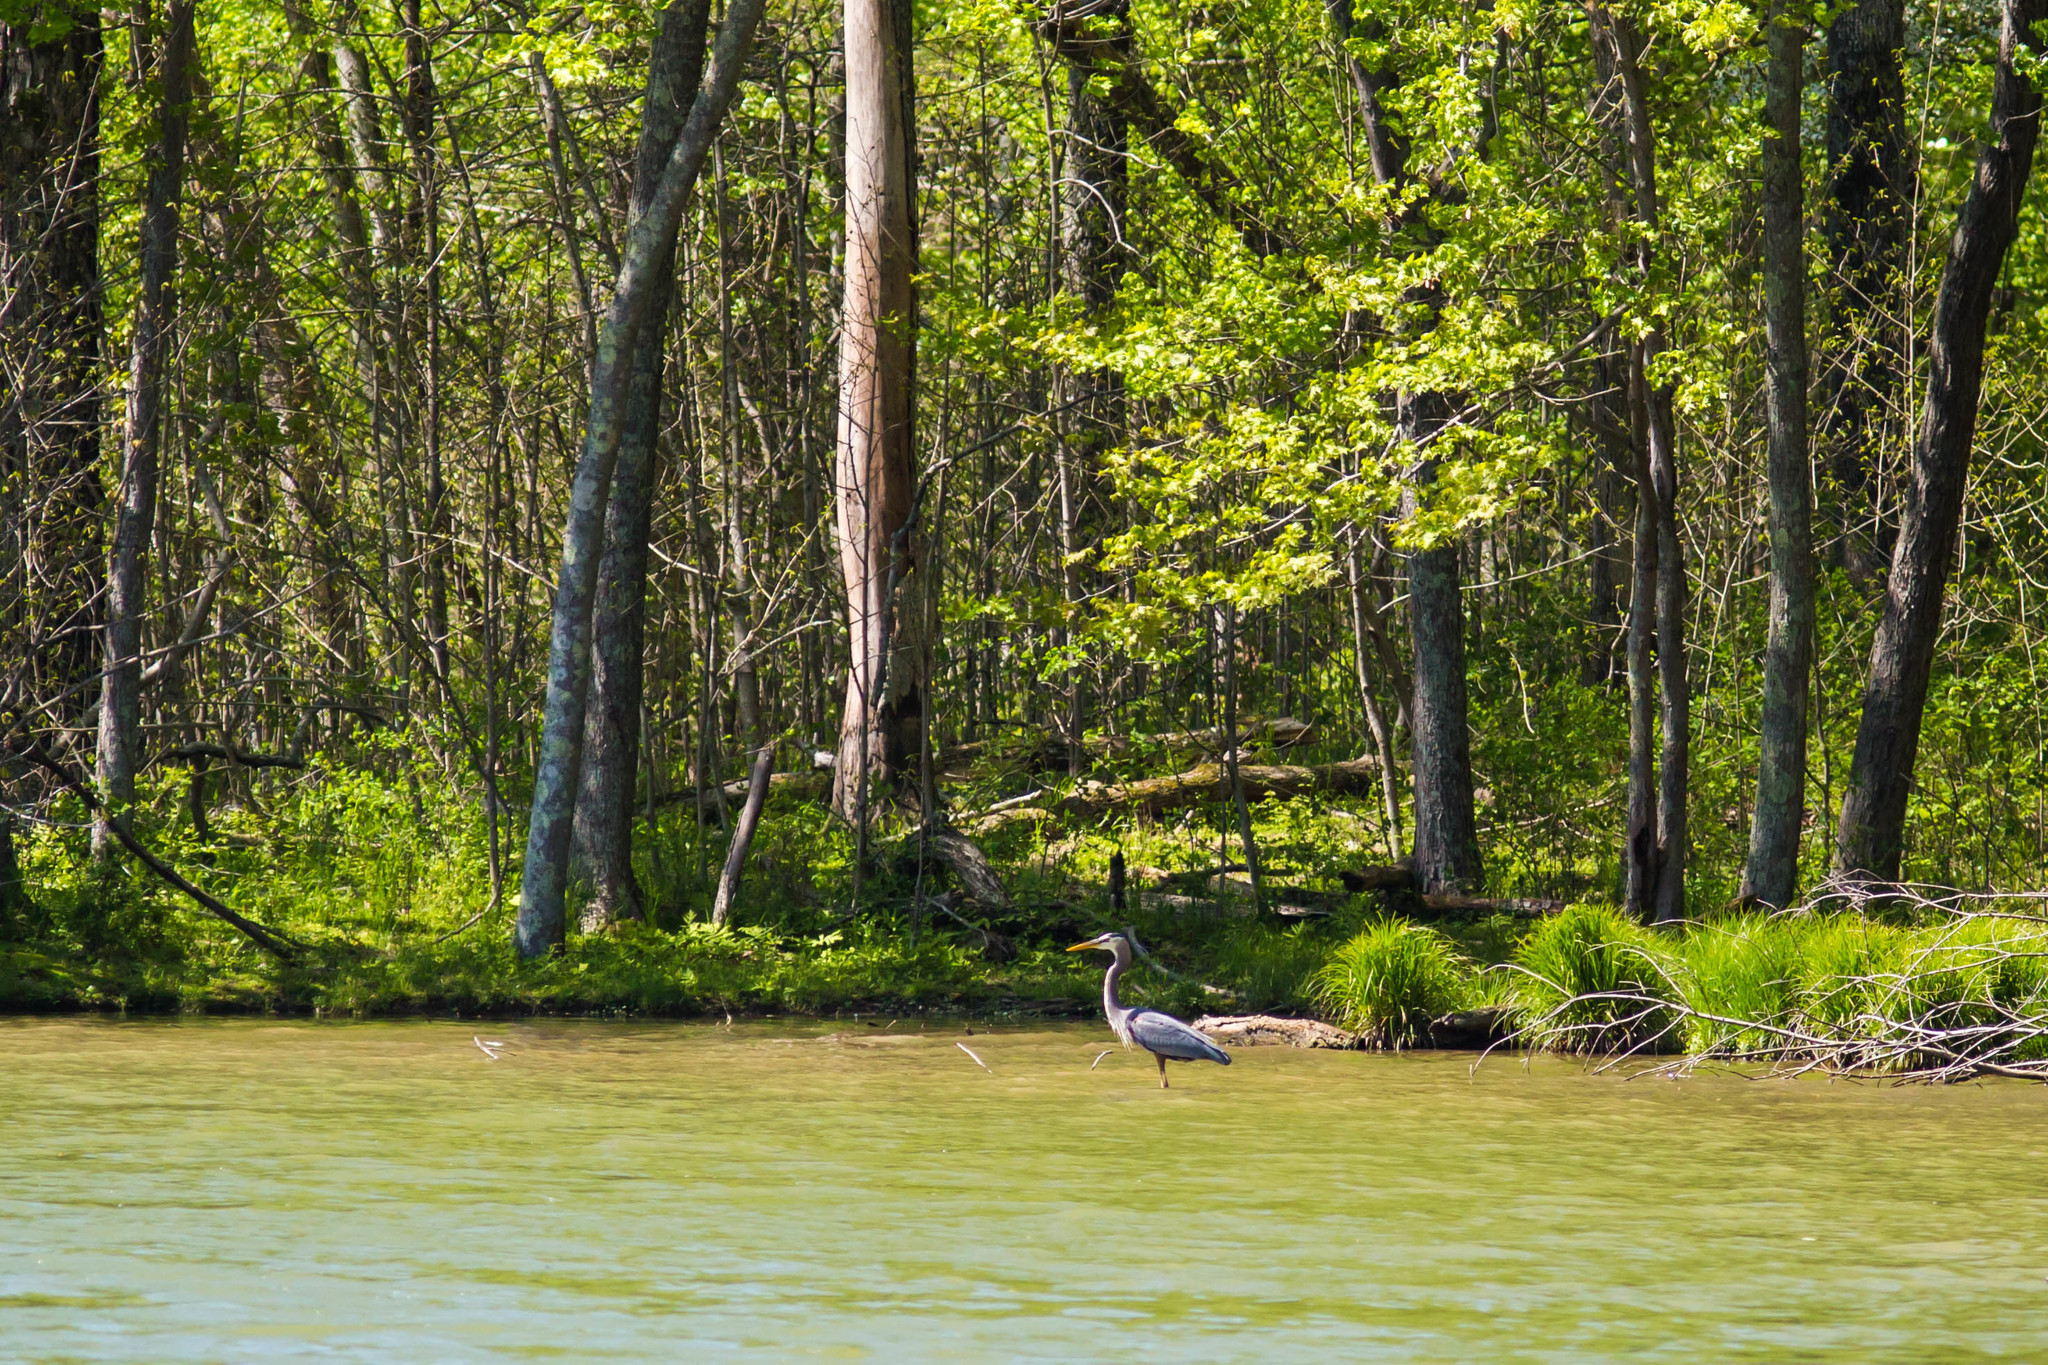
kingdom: Animalia
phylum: Chordata
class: Aves
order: Pelecaniformes
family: Ardeidae
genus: Ardea
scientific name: Ardea herodias
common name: Great blue heron
